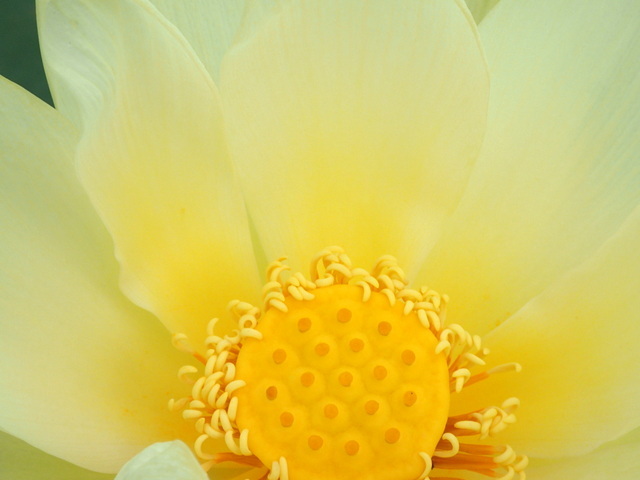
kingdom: Plantae
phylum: Tracheophyta
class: Magnoliopsida
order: Proteales
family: Nelumbonaceae
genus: Nelumbo
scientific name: Nelumbo lutea
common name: American lotus
